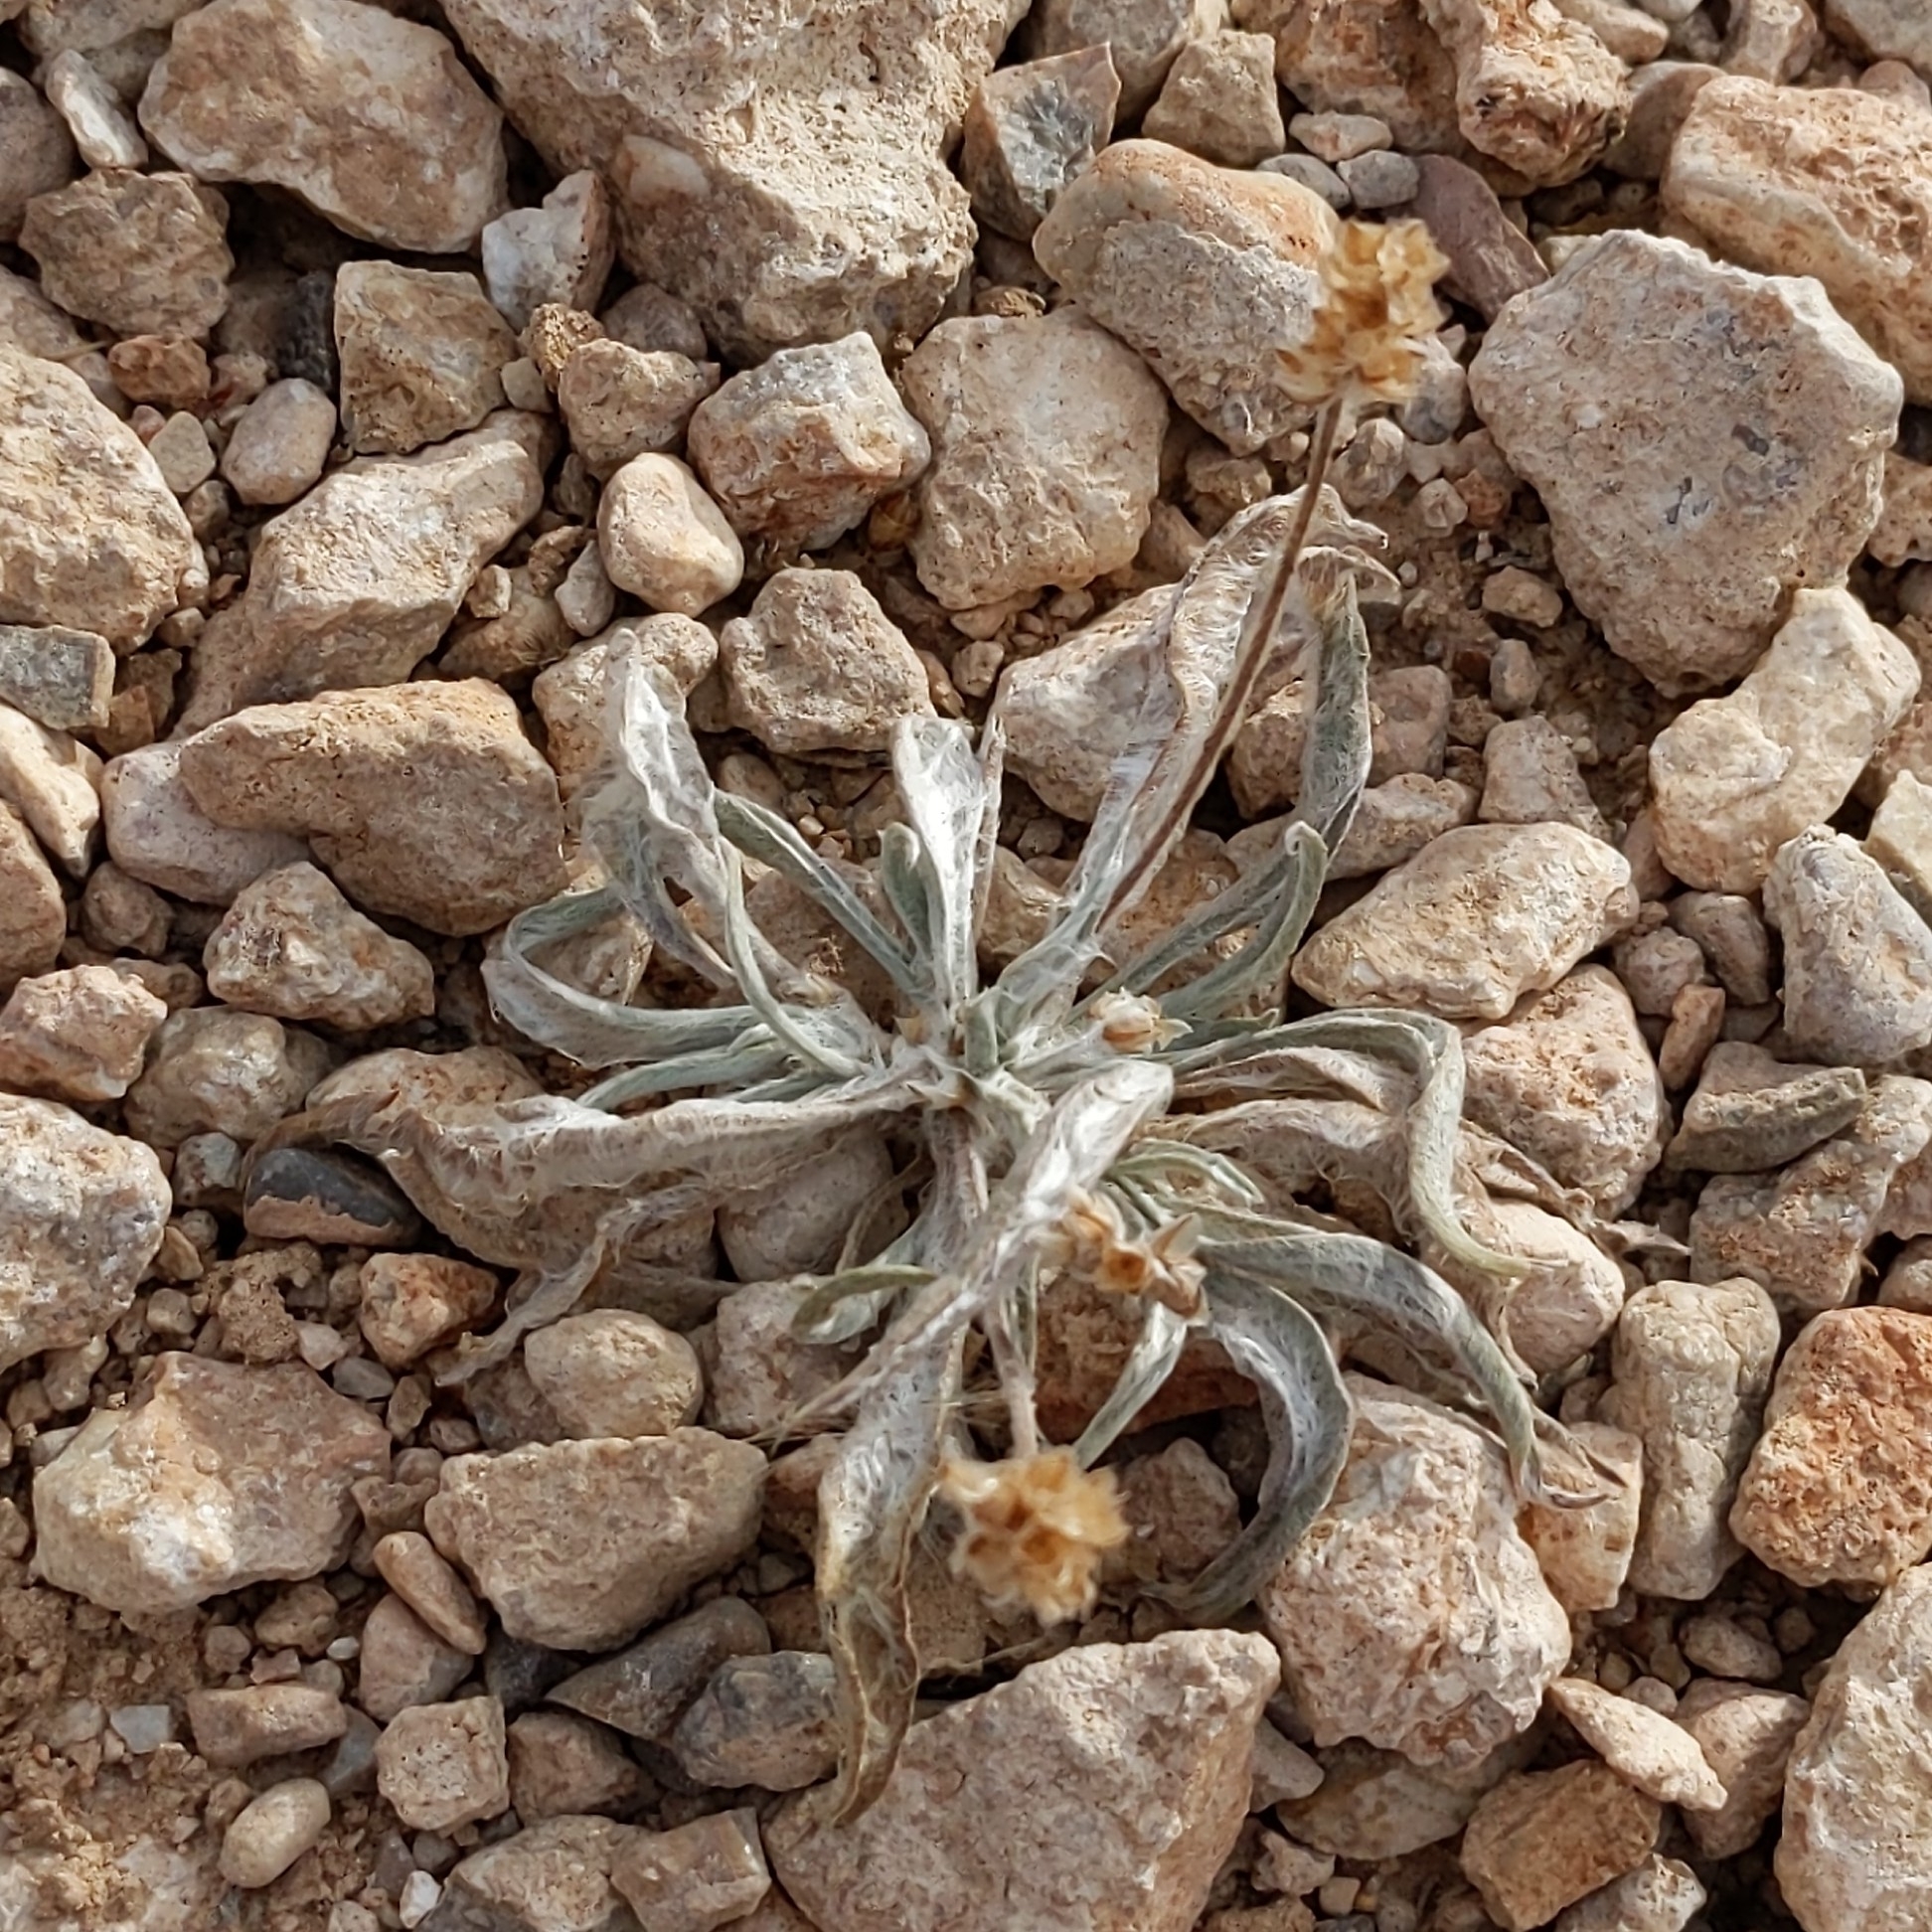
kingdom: Plantae
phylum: Tracheophyta
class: Magnoliopsida
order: Lamiales
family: Plantaginaceae
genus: Plantago
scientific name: Plantago ovata
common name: Blond plantain
